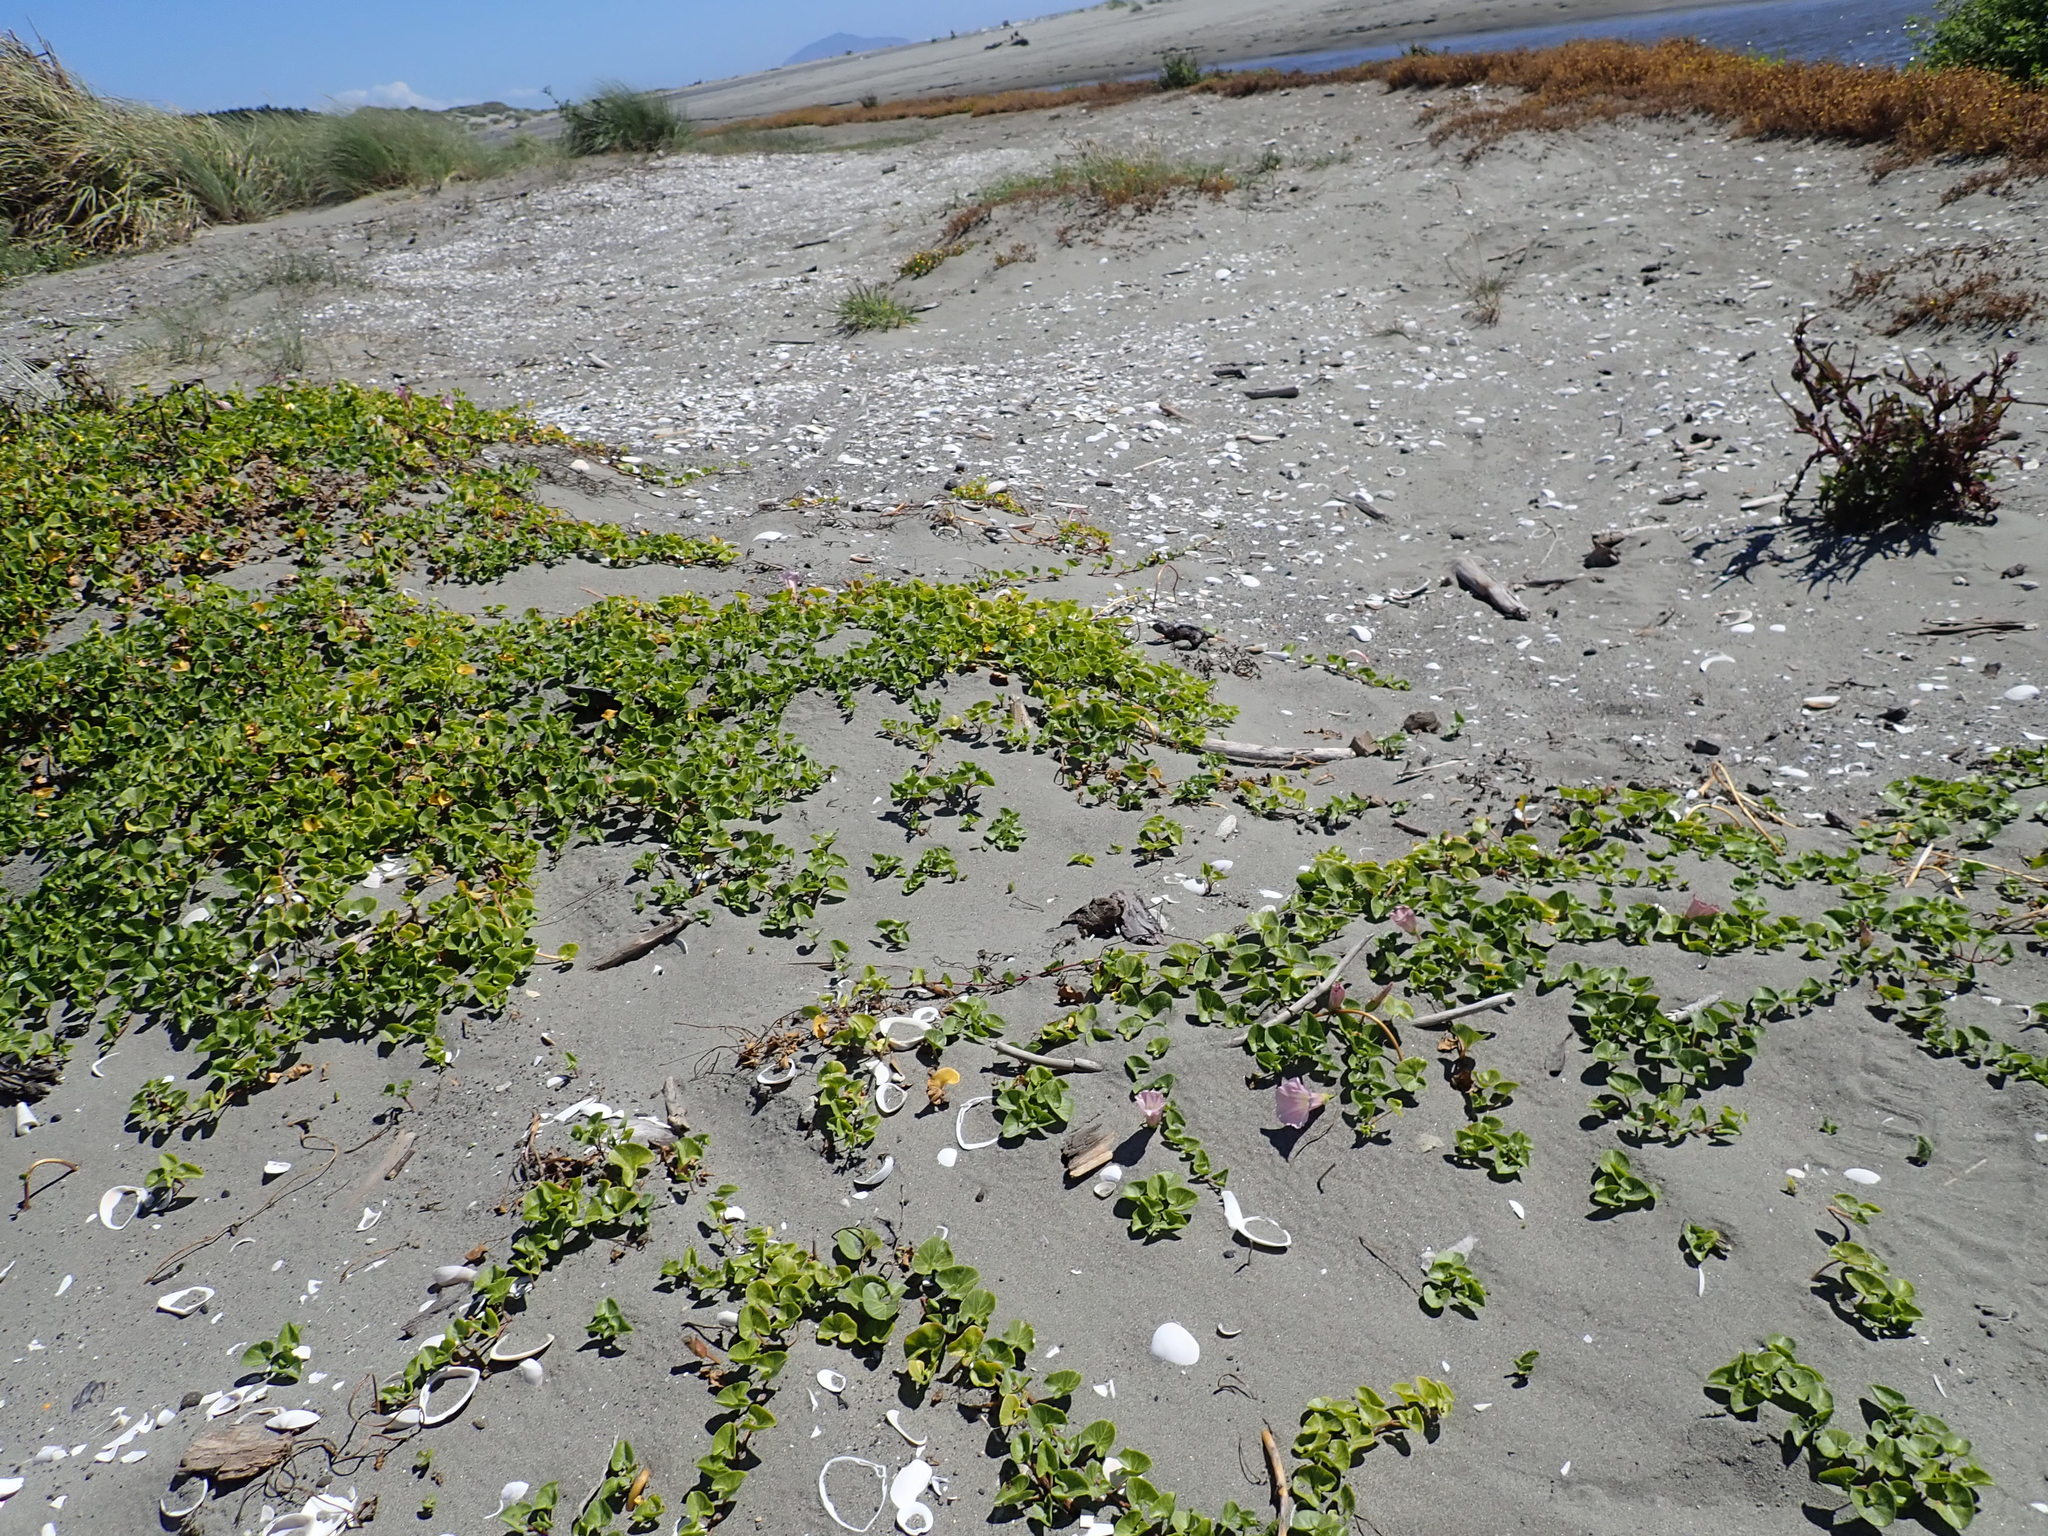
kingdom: Plantae
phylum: Tracheophyta
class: Magnoliopsida
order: Solanales
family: Convolvulaceae
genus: Calystegia
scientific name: Calystegia soldanella
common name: Sea bindweed
